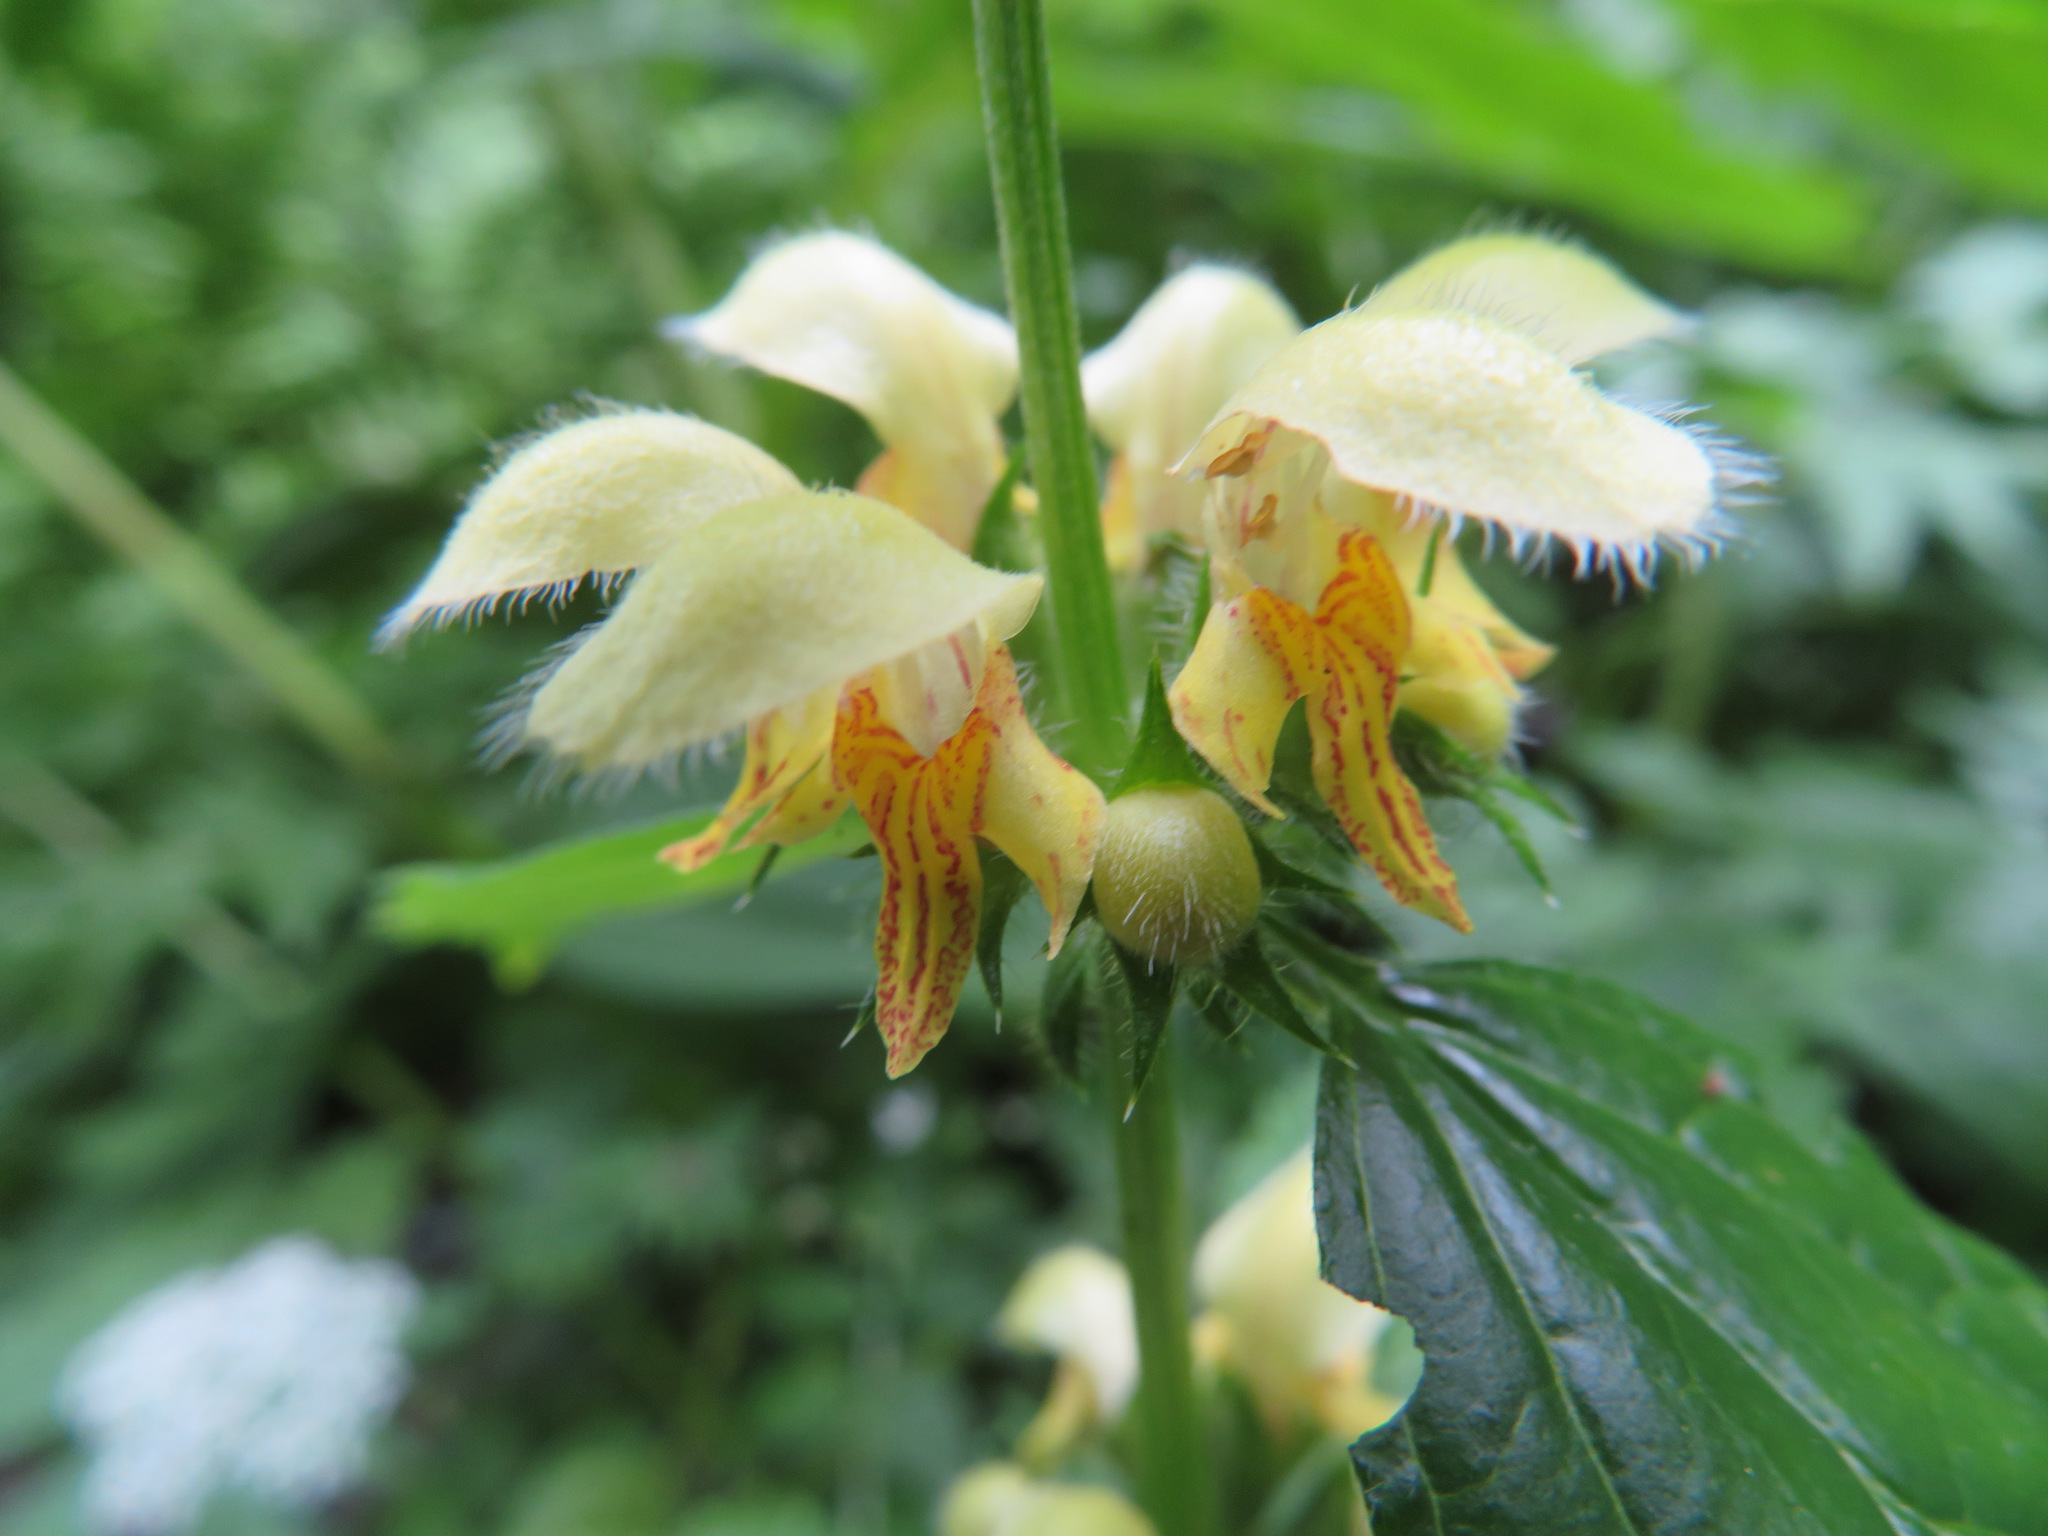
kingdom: Plantae
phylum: Tracheophyta
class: Magnoliopsida
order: Lamiales
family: Lamiaceae
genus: Lamium
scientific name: Lamium galeobdolon
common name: Yellow archangel
